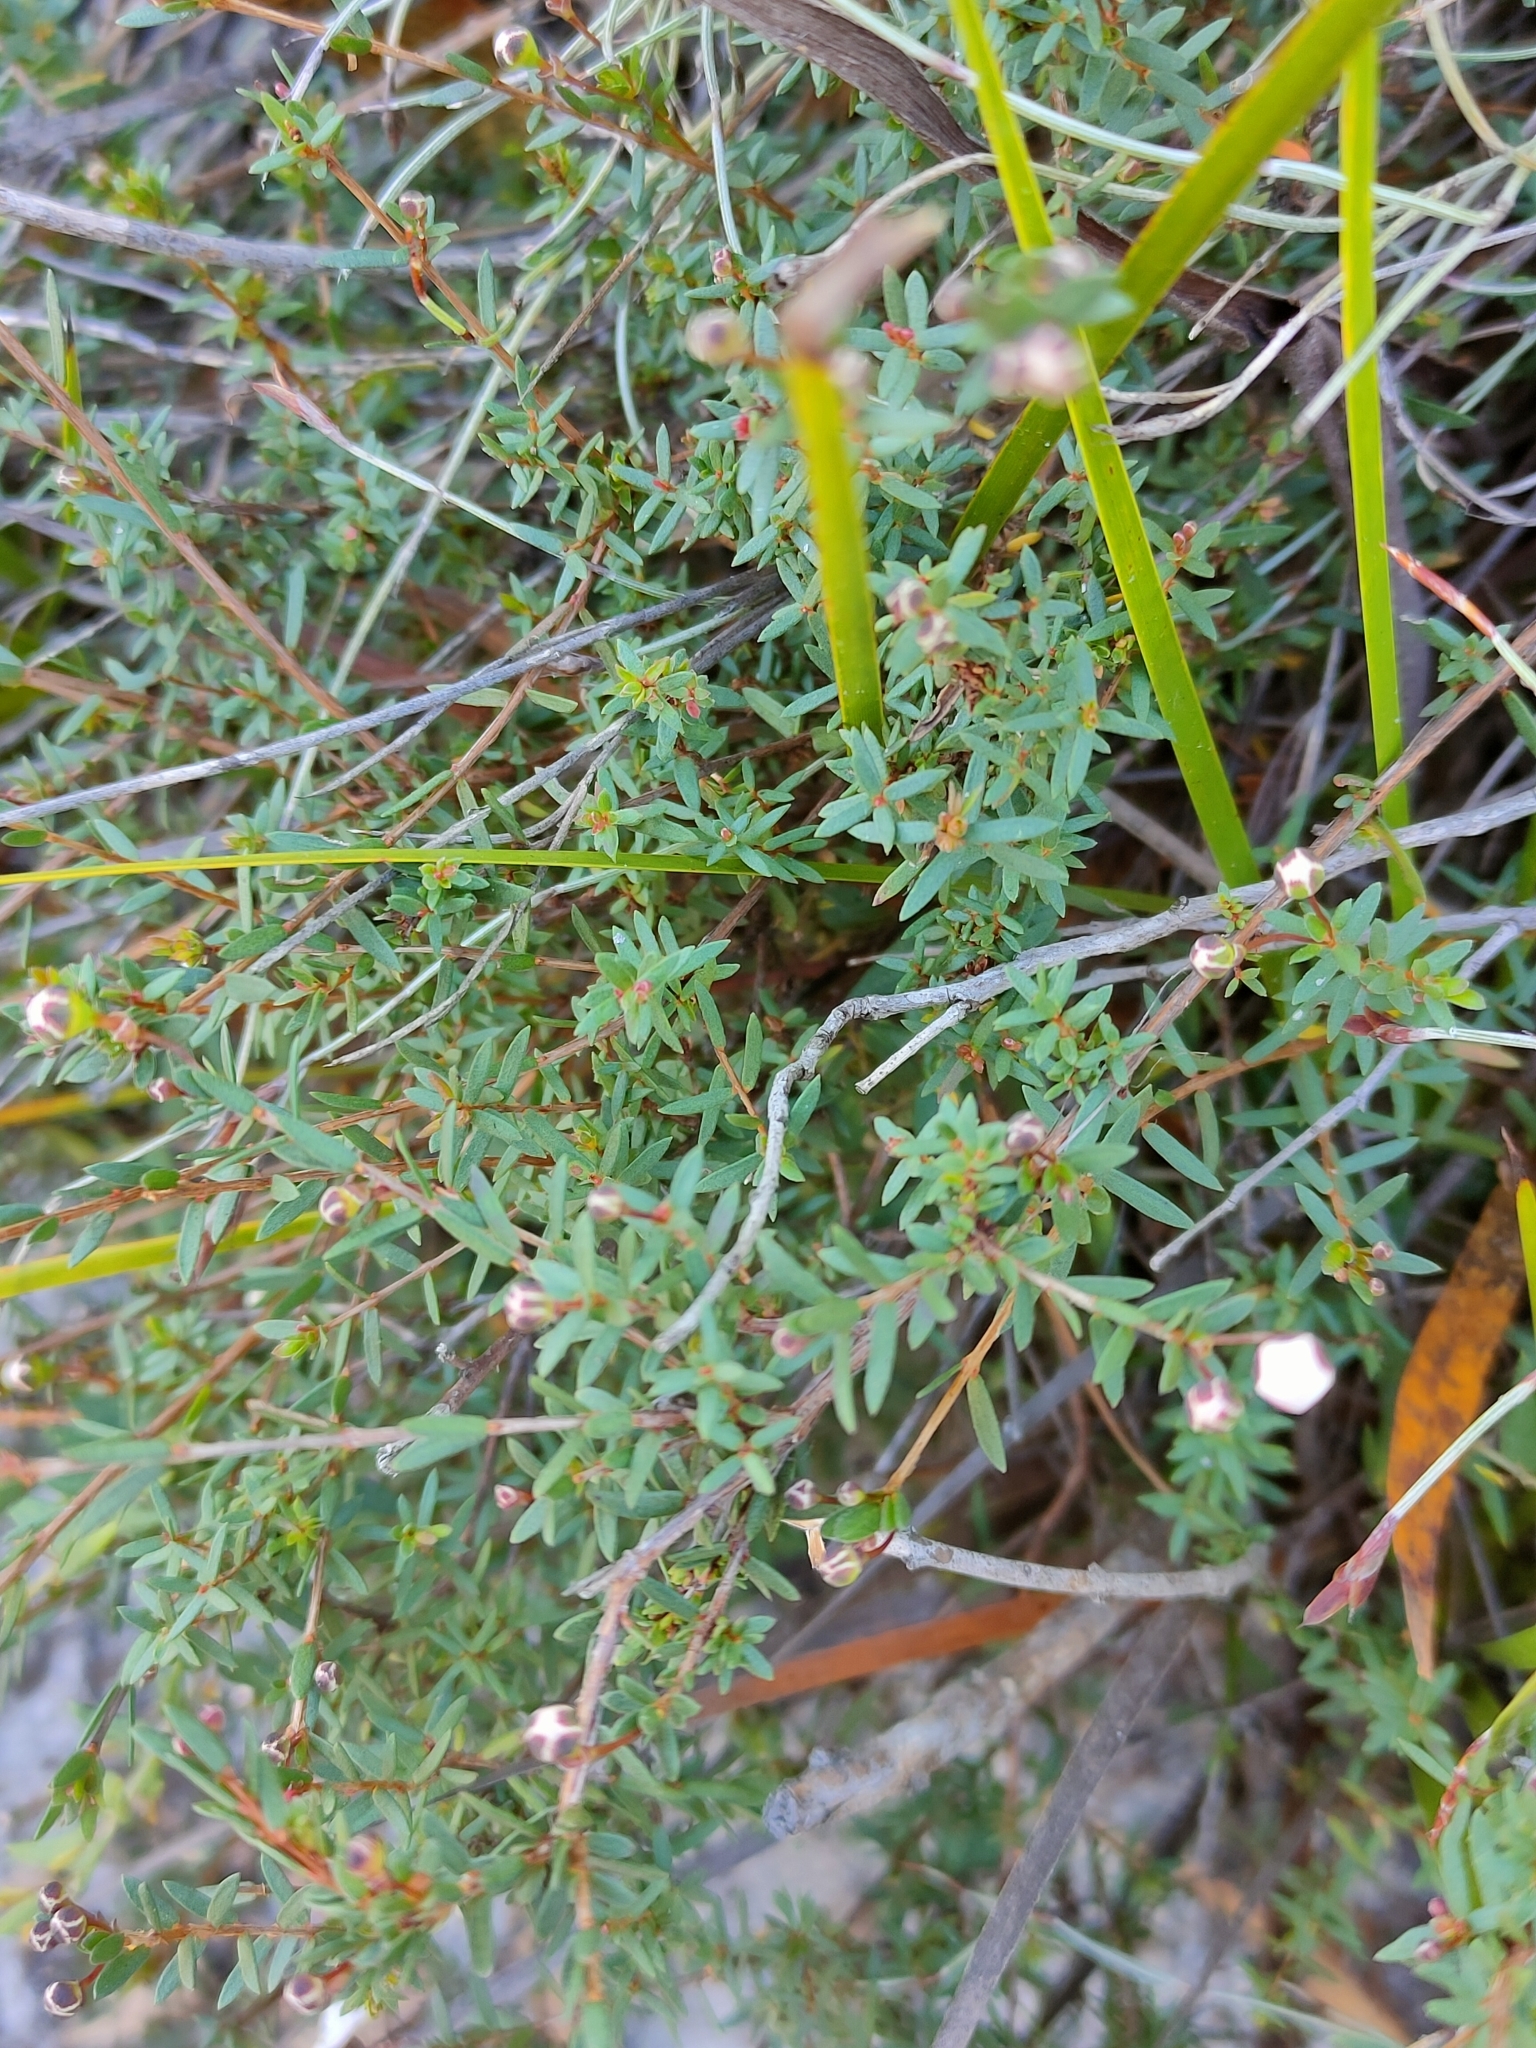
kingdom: Plantae
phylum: Tracheophyta
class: Magnoliopsida
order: Myrtales
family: Myrtaceae
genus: Euryomyrtus
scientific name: Euryomyrtus ramosissima
